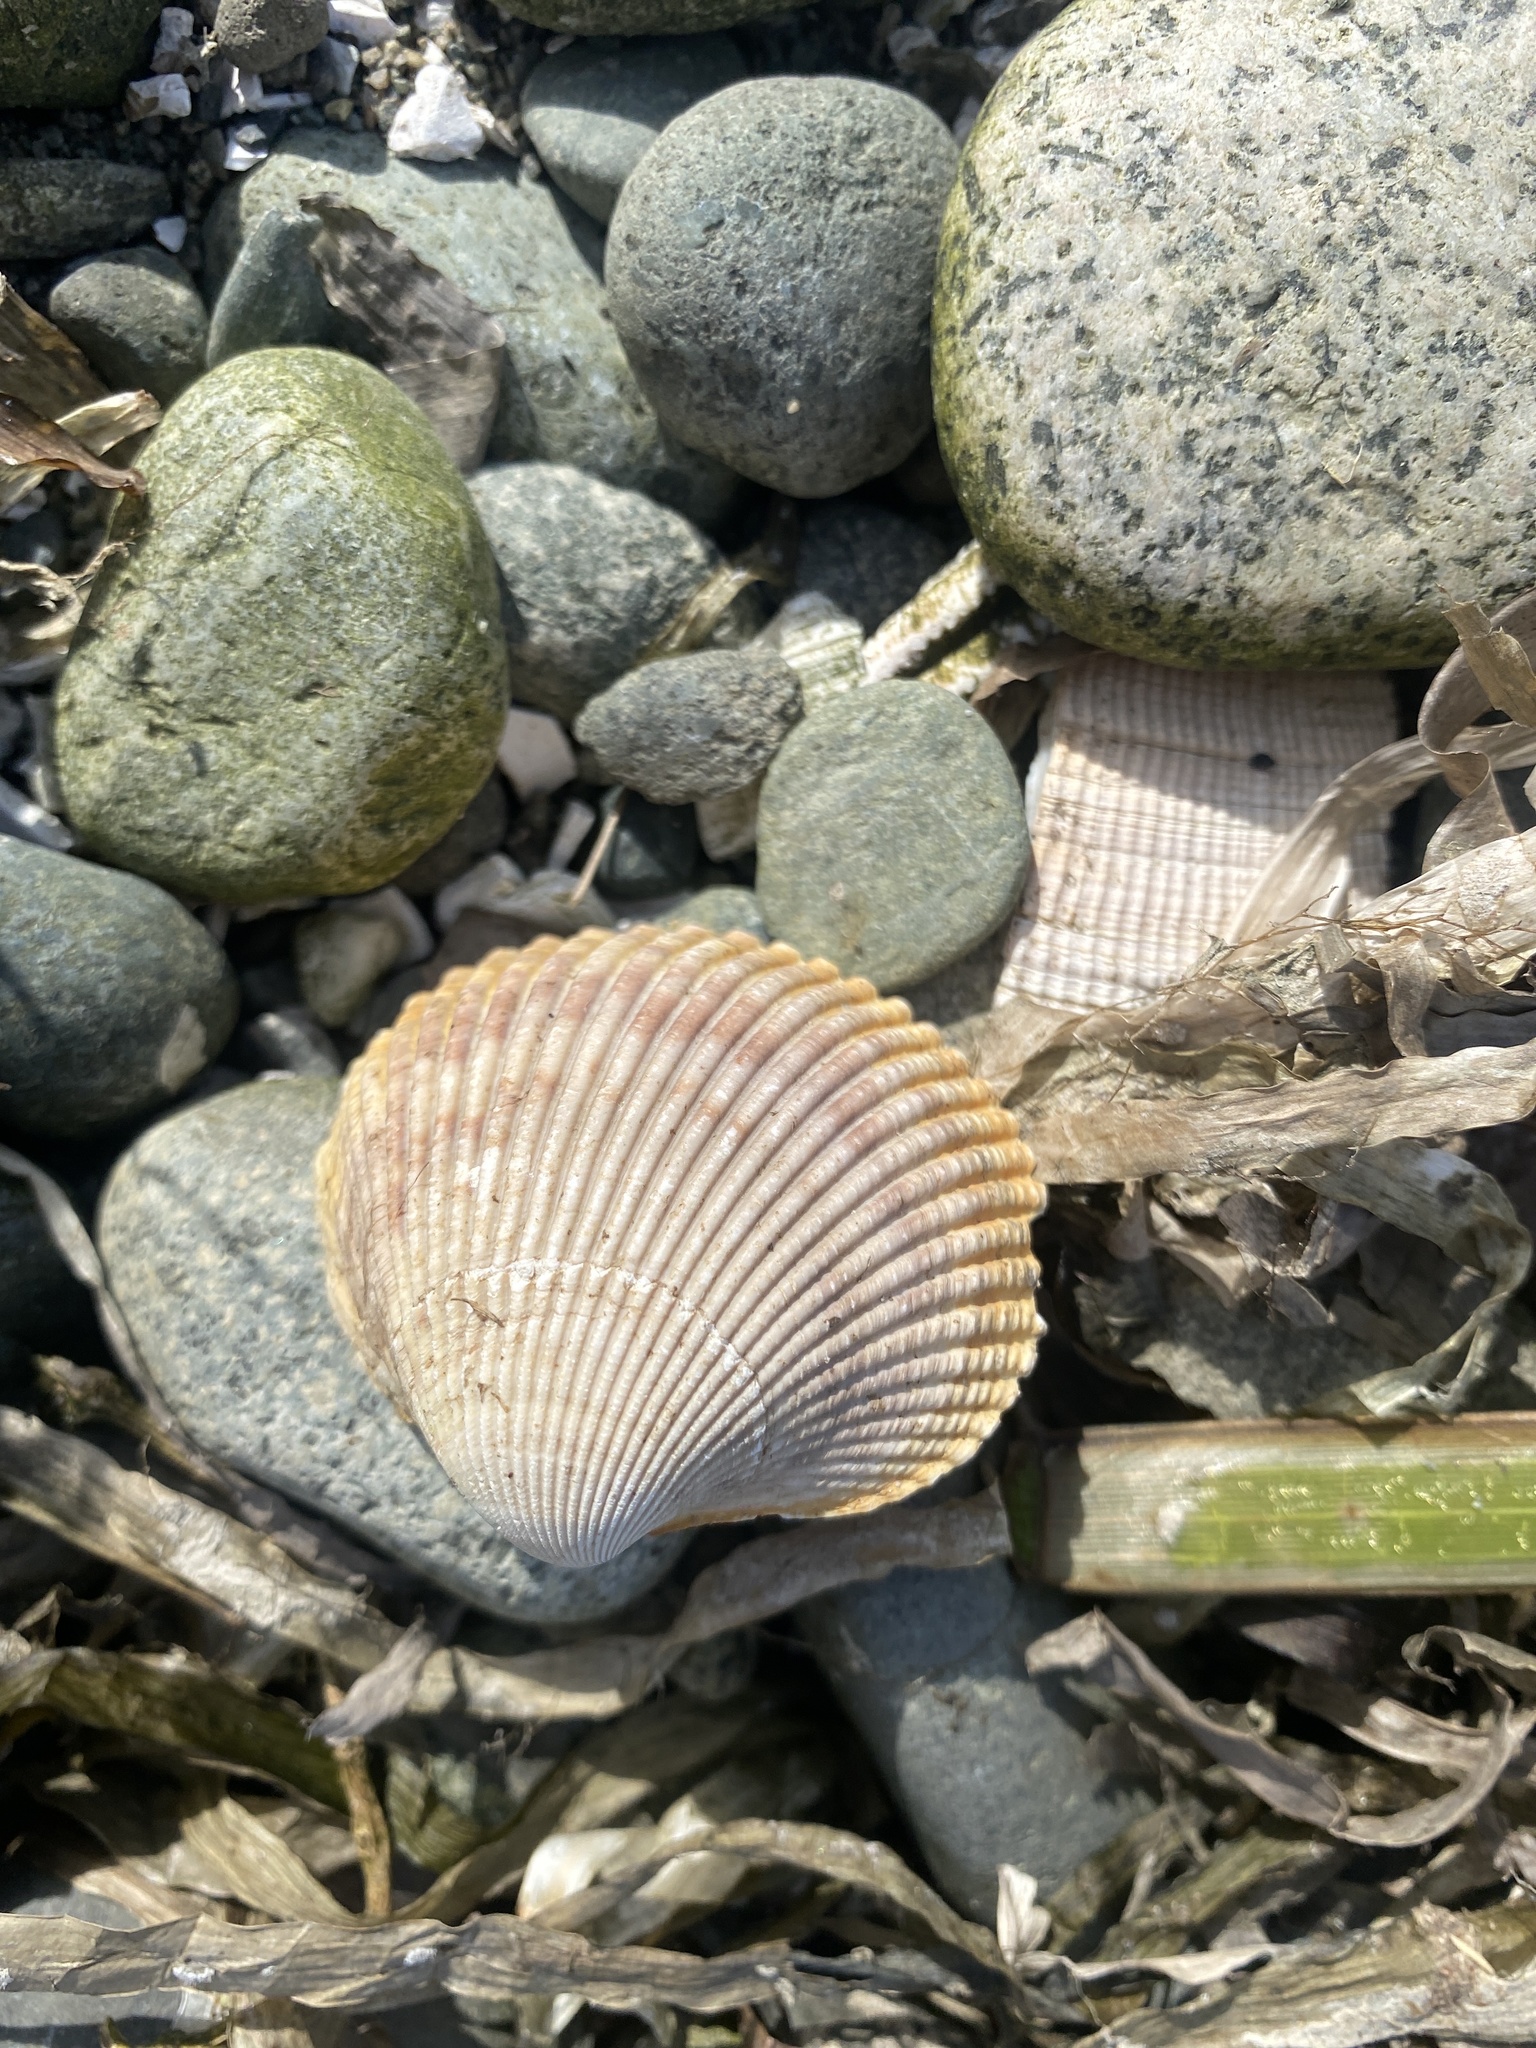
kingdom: Animalia
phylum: Mollusca
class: Bivalvia
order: Cardiida
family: Cardiidae
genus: Clinocardium
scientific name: Clinocardium nuttallii
